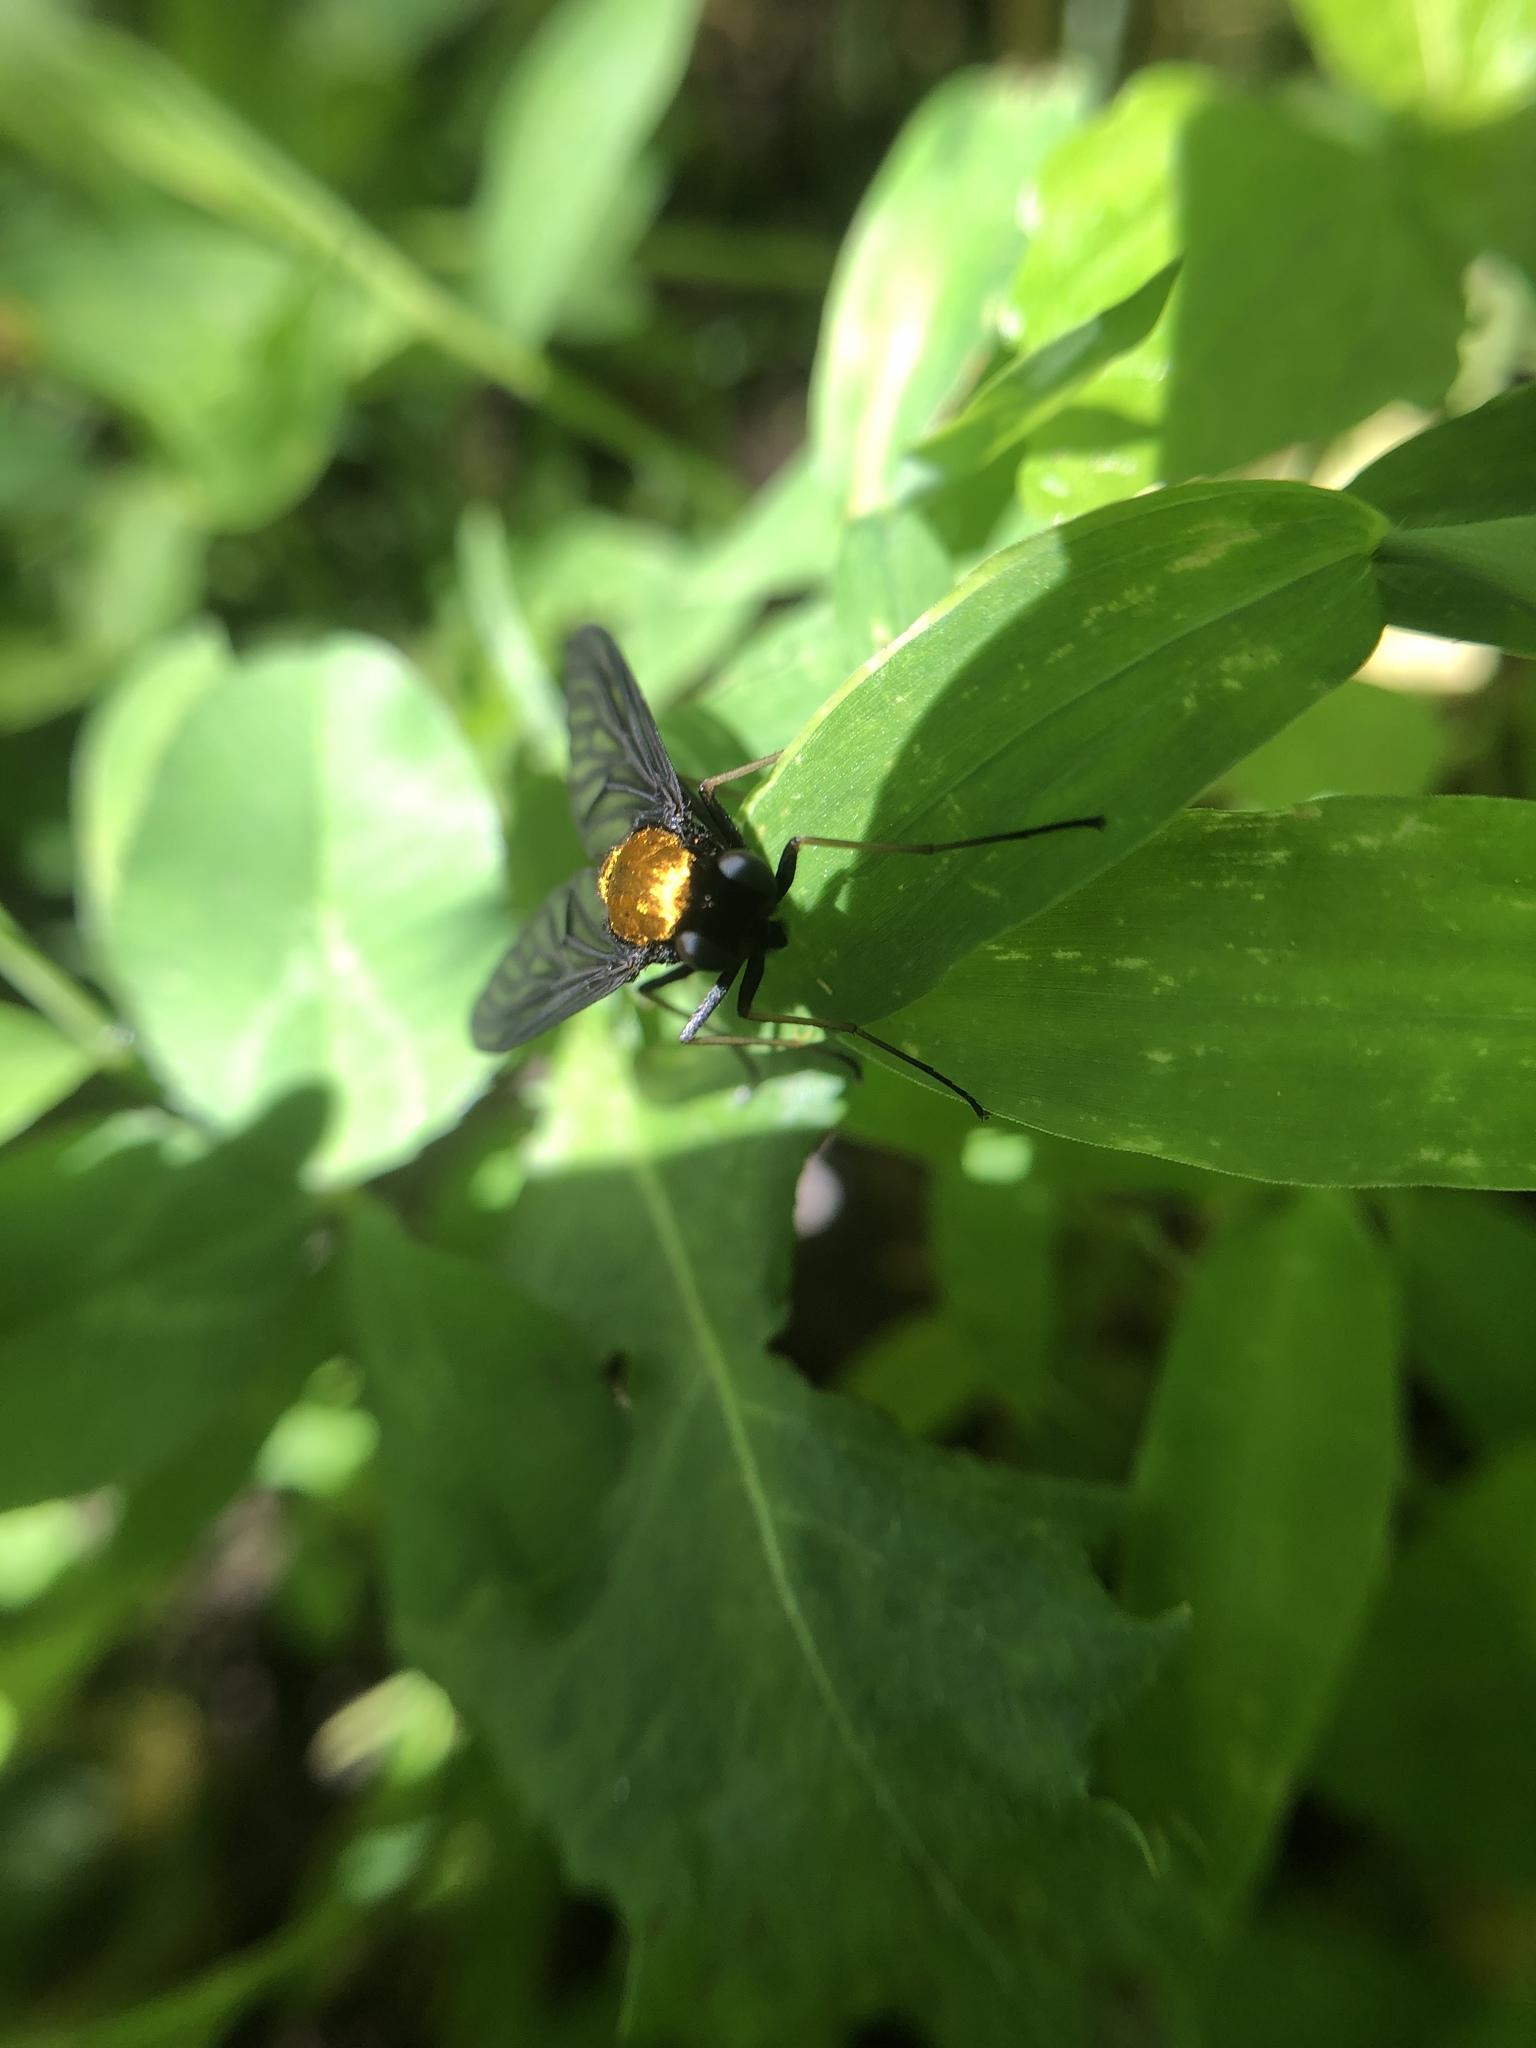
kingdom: Animalia
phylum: Arthropoda
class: Insecta
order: Diptera
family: Rhagionidae
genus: Chrysopilus
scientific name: Chrysopilus thoracicus
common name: Golden-backed snipe fly
